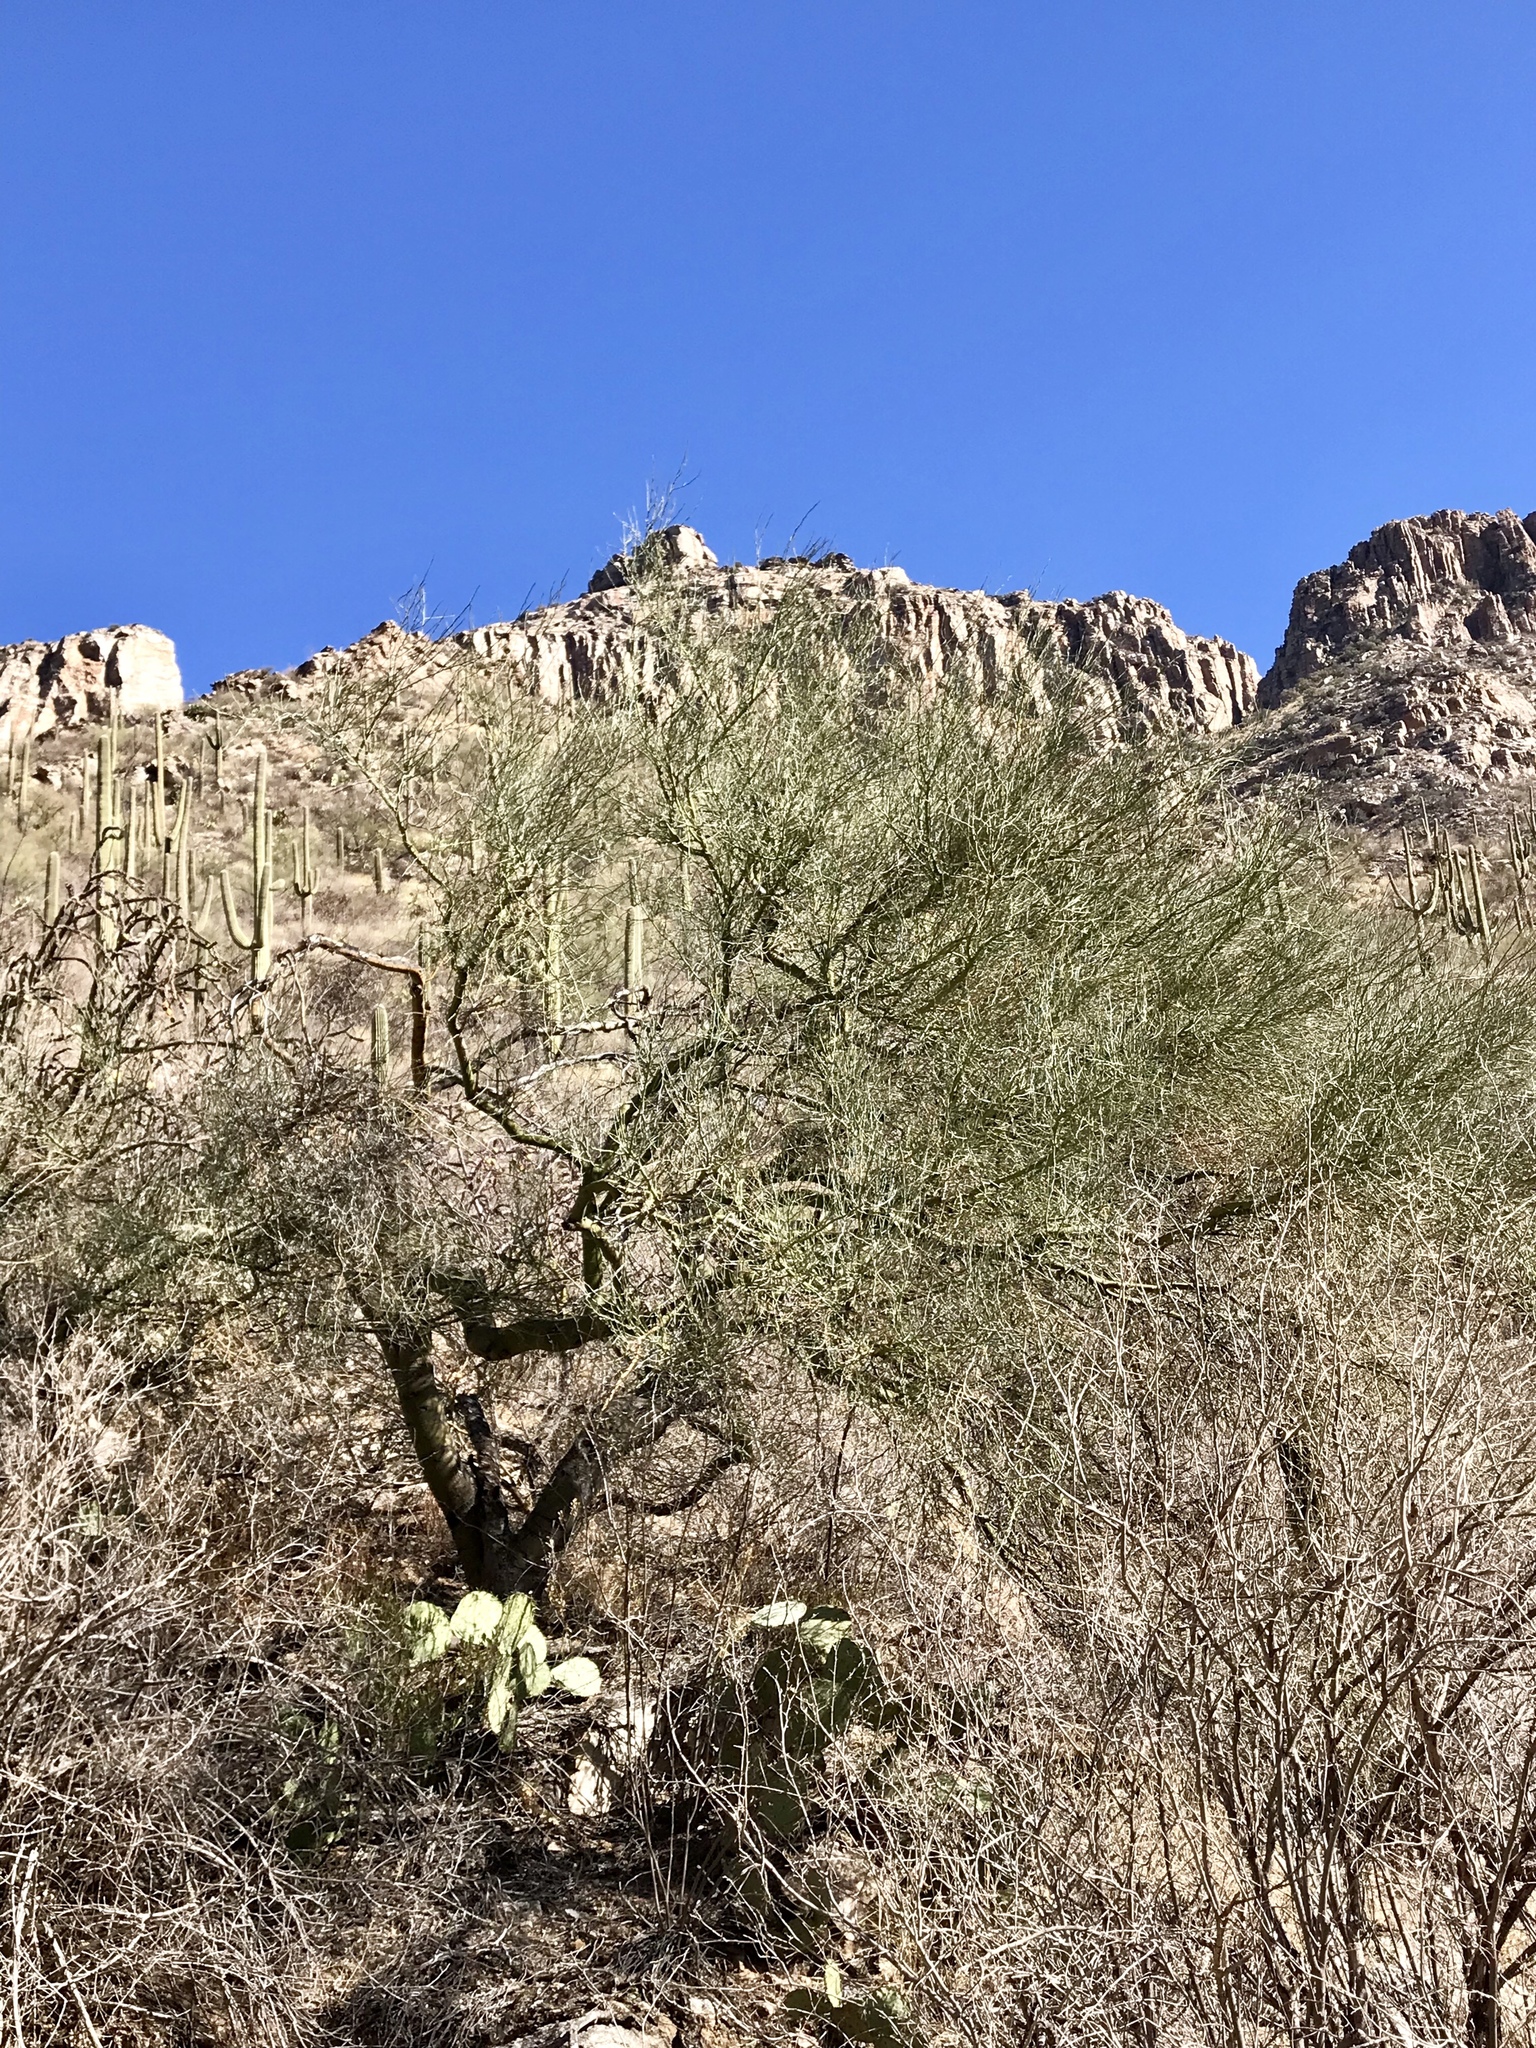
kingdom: Plantae
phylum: Tracheophyta
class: Magnoliopsida
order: Fabales
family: Fabaceae
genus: Parkinsonia
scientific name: Parkinsonia microphylla
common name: Yellow paloverde
